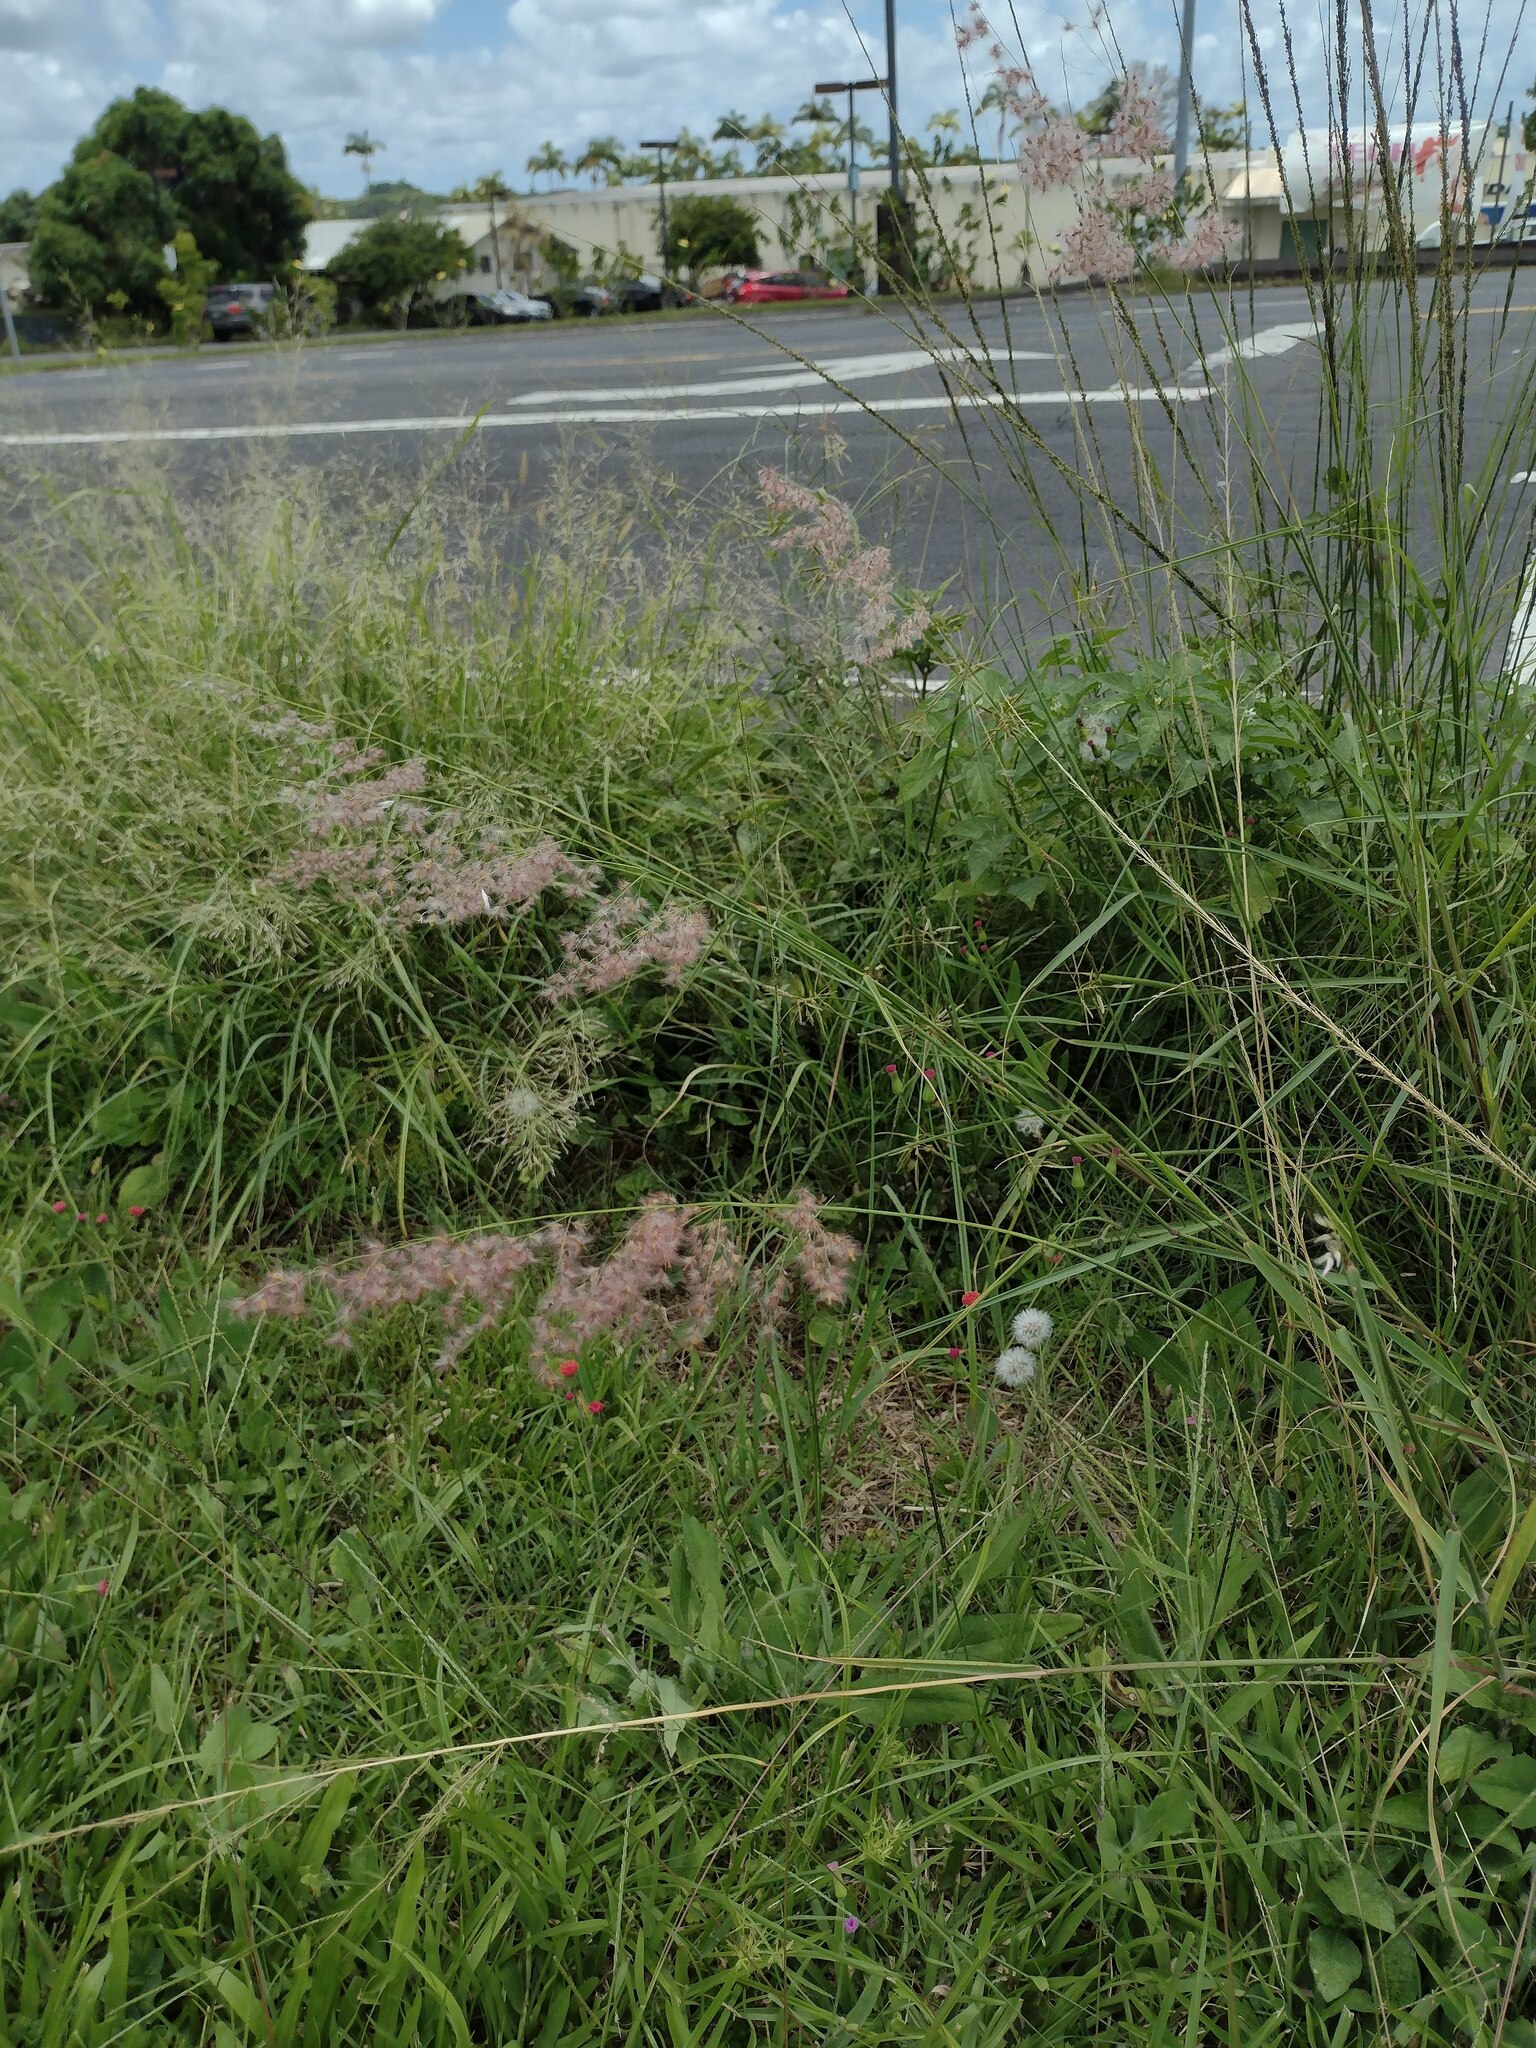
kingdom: Plantae
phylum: Tracheophyta
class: Liliopsida
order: Poales
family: Poaceae
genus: Melinis
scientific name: Melinis repens
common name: Rose natal grass
